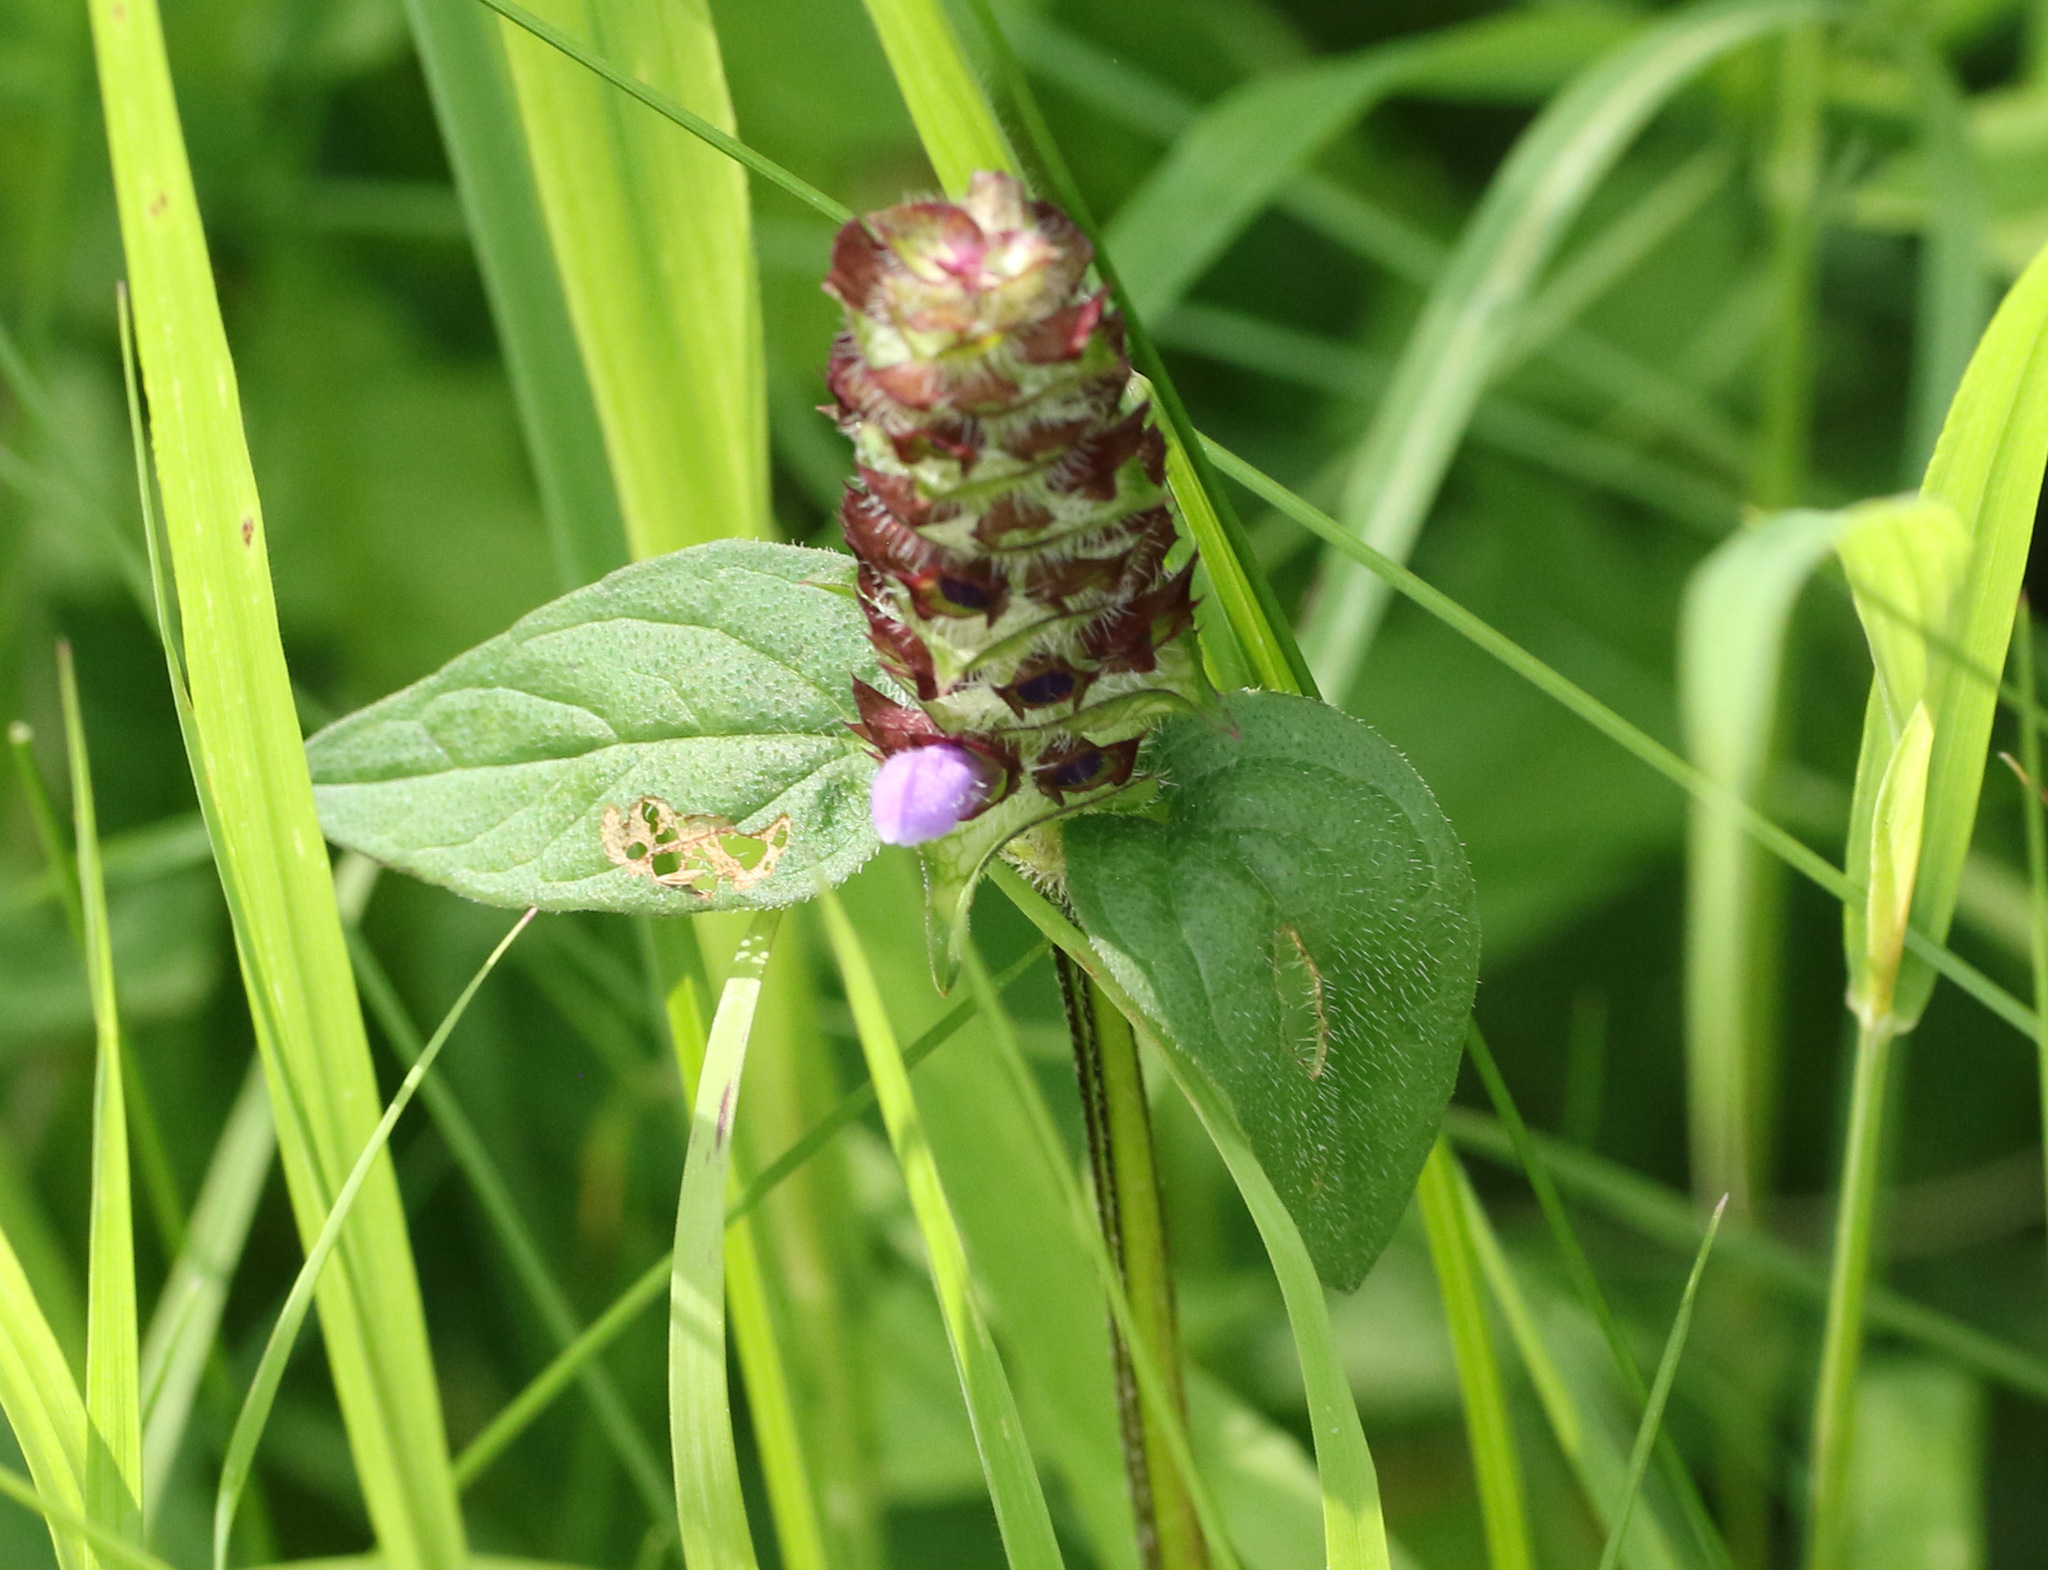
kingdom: Plantae
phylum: Tracheophyta
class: Magnoliopsida
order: Lamiales
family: Lamiaceae
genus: Prunella
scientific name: Prunella vulgaris
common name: Heal-all
